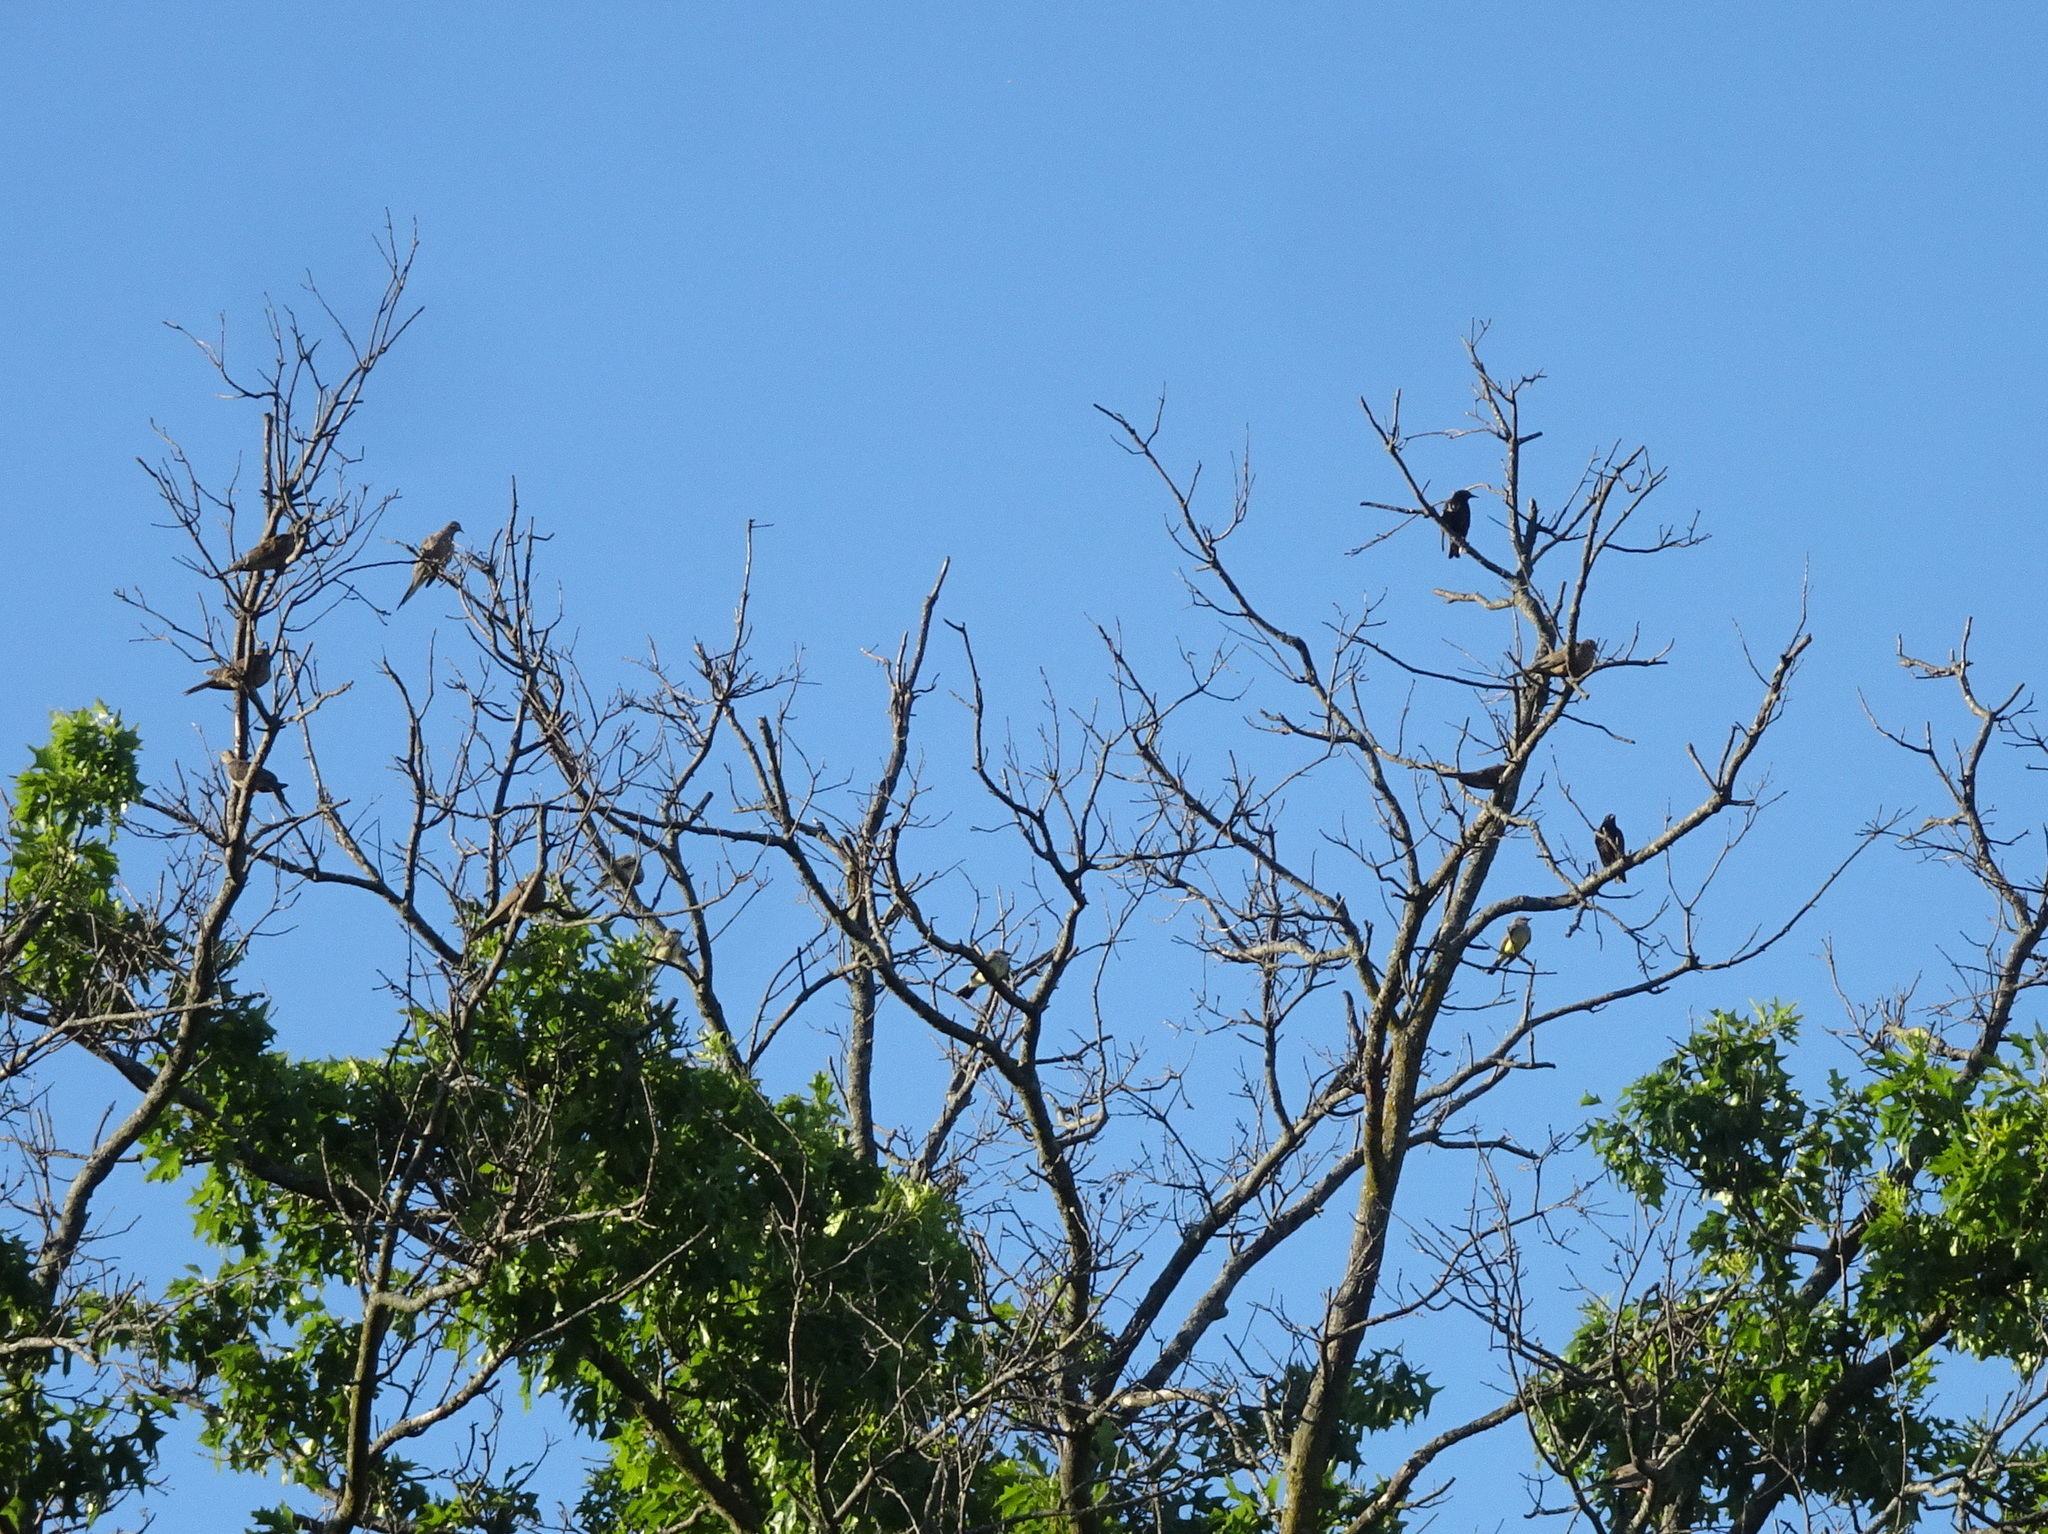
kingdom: Animalia
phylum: Chordata
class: Aves
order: Passeriformes
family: Tyrannidae
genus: Tyrannus
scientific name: Tyrannus verticalis
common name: Western kingbird
